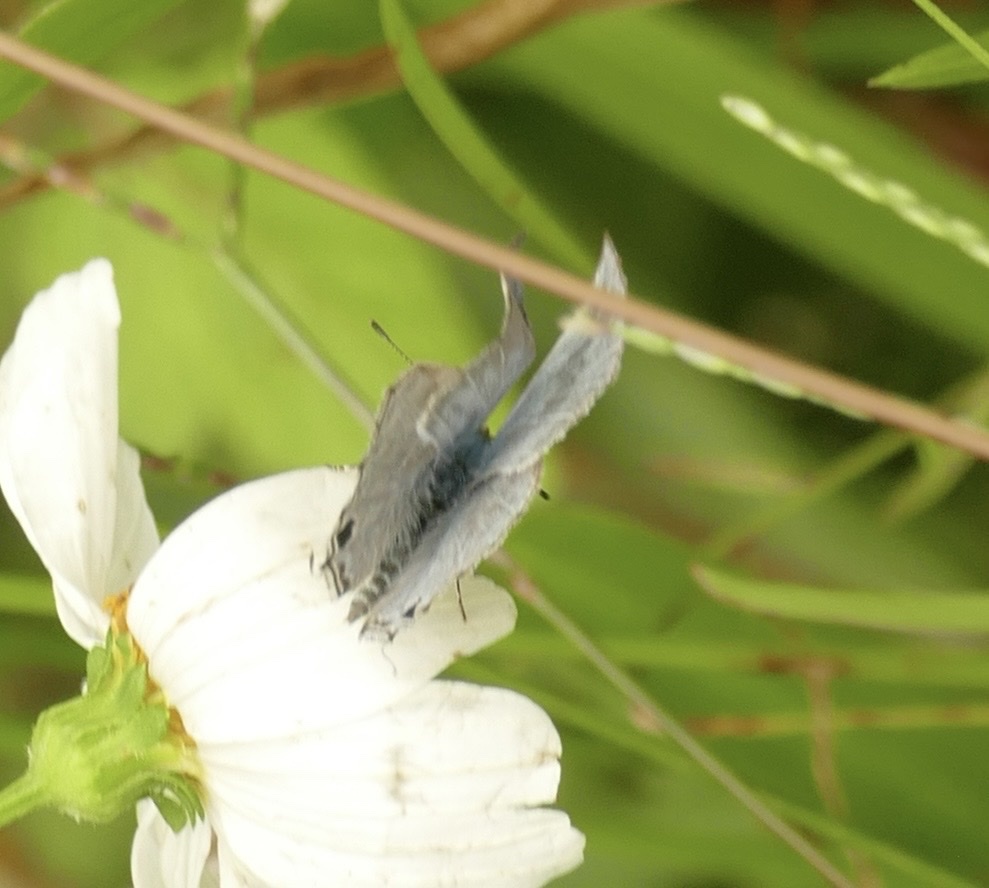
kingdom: Animalia
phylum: Arthropoda
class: Insecta
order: Lepidoptera
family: Lycaenidae
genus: Catochrysops
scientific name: Catochrysops panormus
